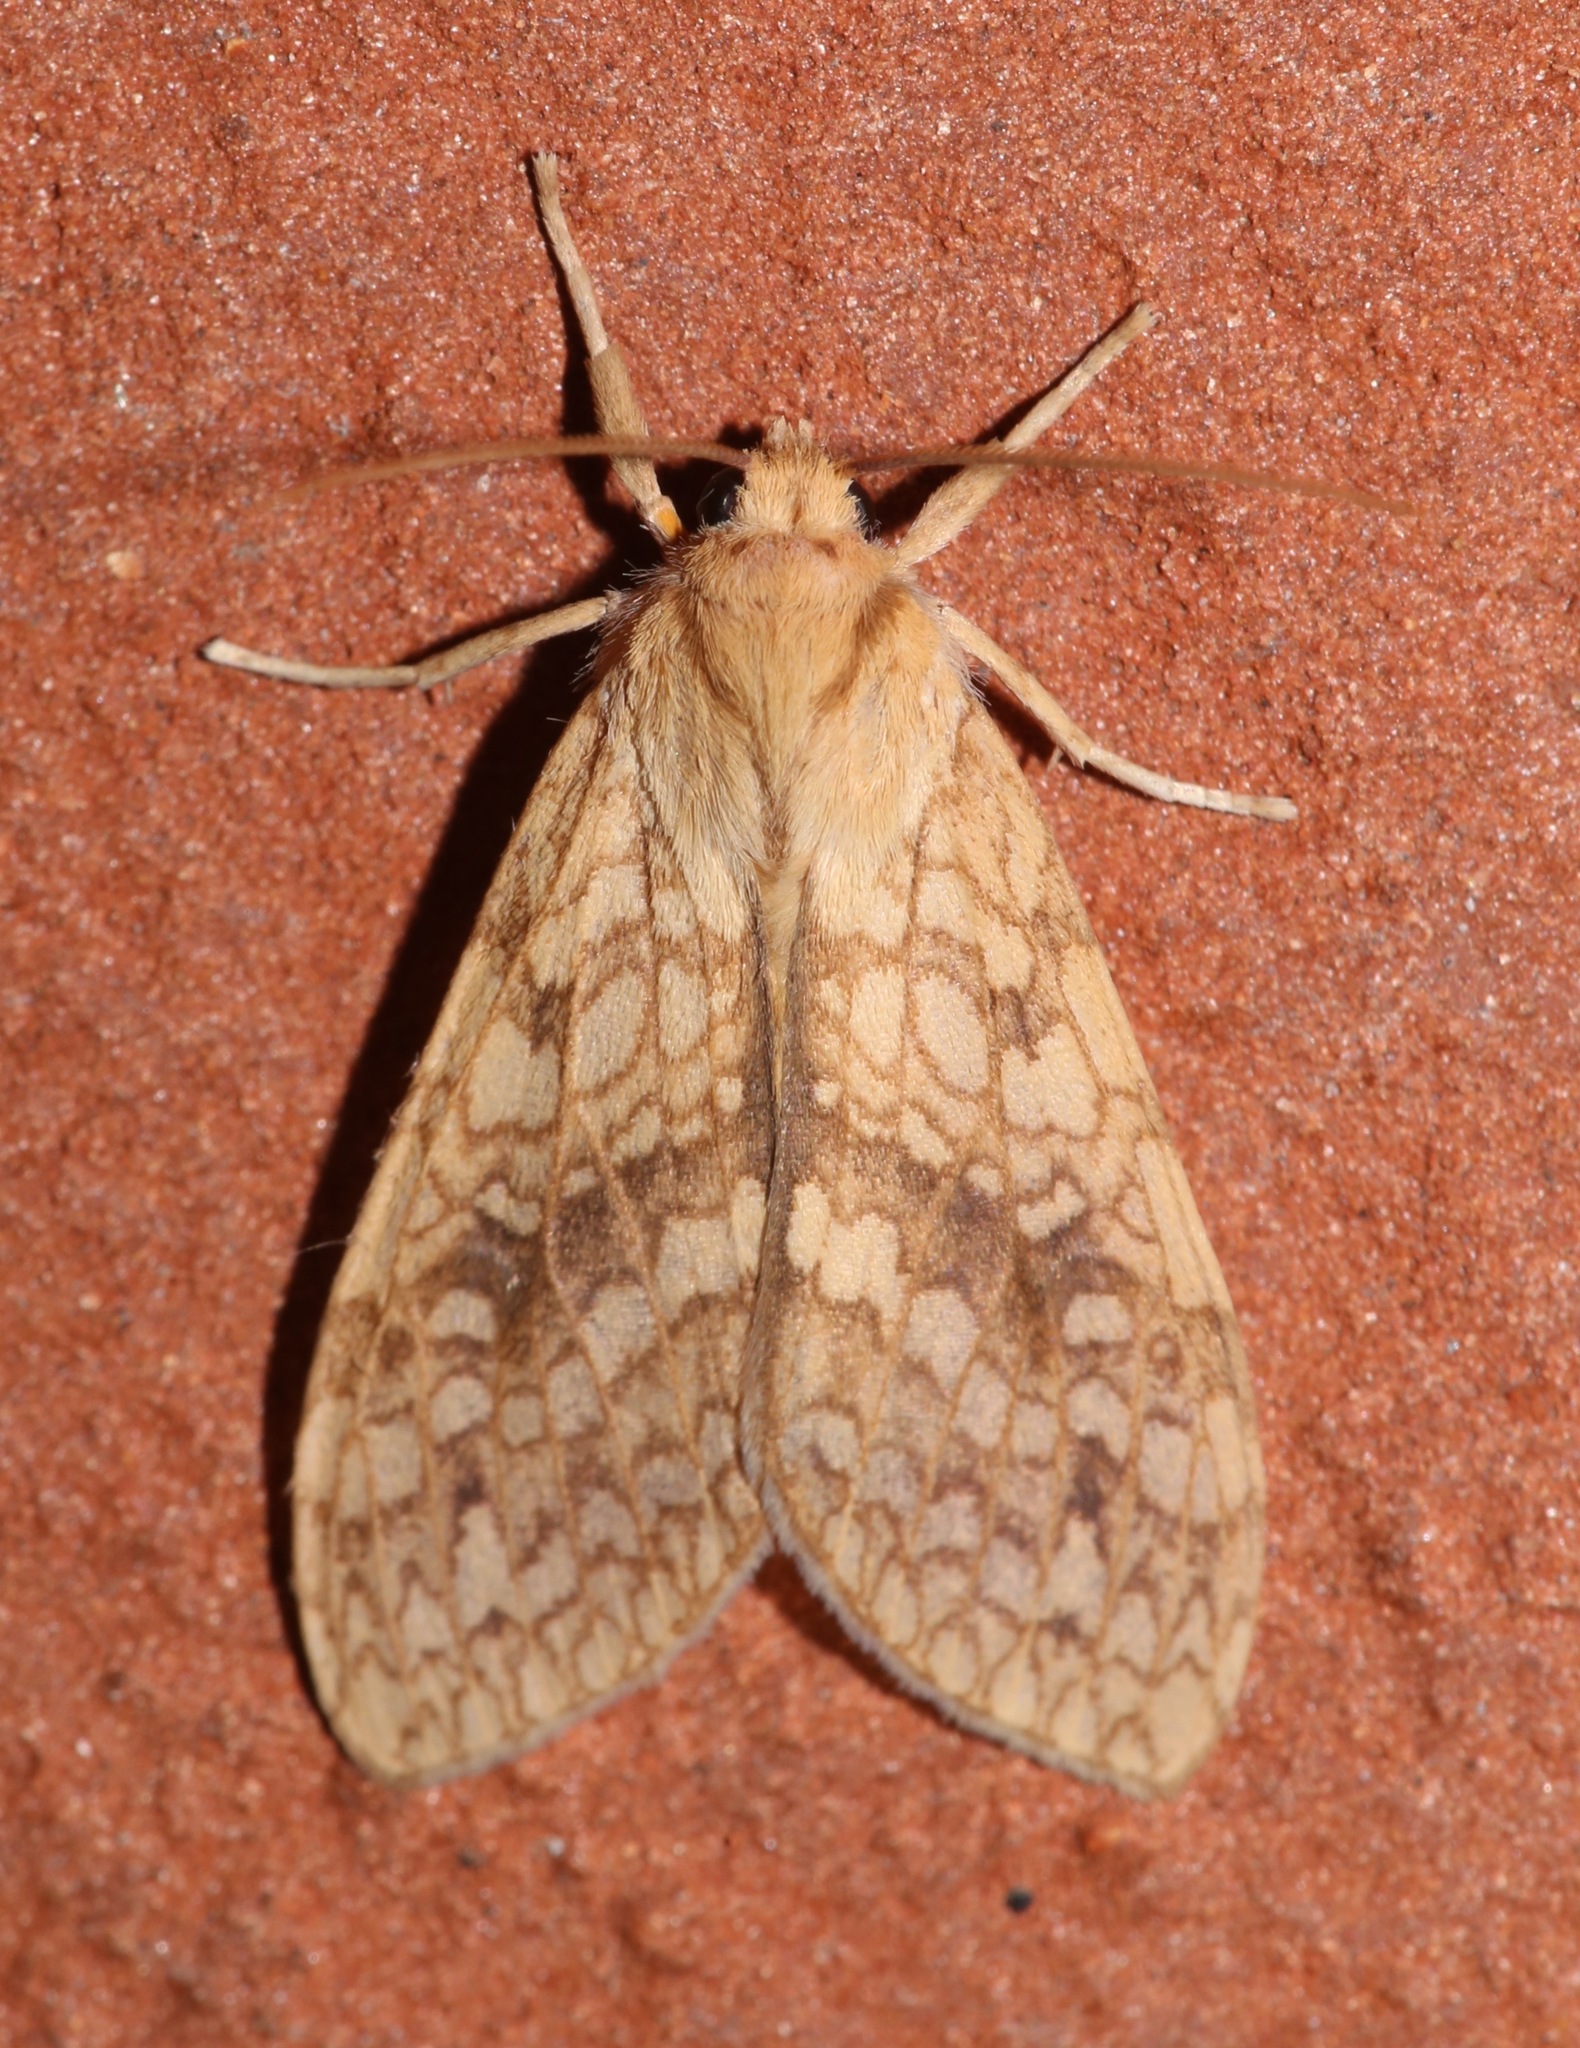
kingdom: Animalia
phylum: Arthropoda
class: Insecta
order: Lepidoptera
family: Erebidae
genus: Lophocampa
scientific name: Lophocampa annulosa
